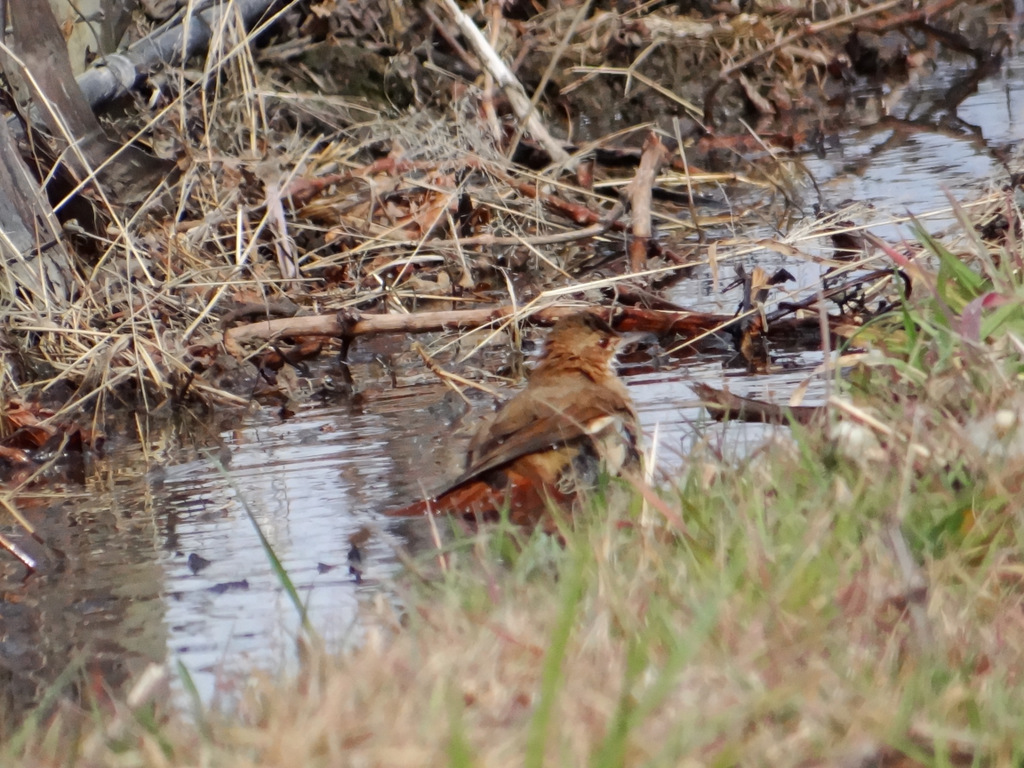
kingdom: Animalia
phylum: Chordata
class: Aves
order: Passeriformes
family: Furnariidae
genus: Furnarius
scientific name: Furnarius rufus
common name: Rufous hornero
